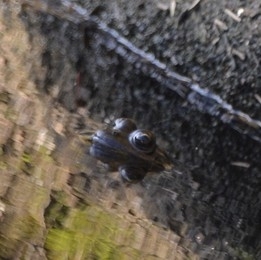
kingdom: Animalia
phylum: Chordata
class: Amphibia
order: Anura
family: Leptodactylidae
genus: Leptodactylus
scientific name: Leptodactylus luctator
